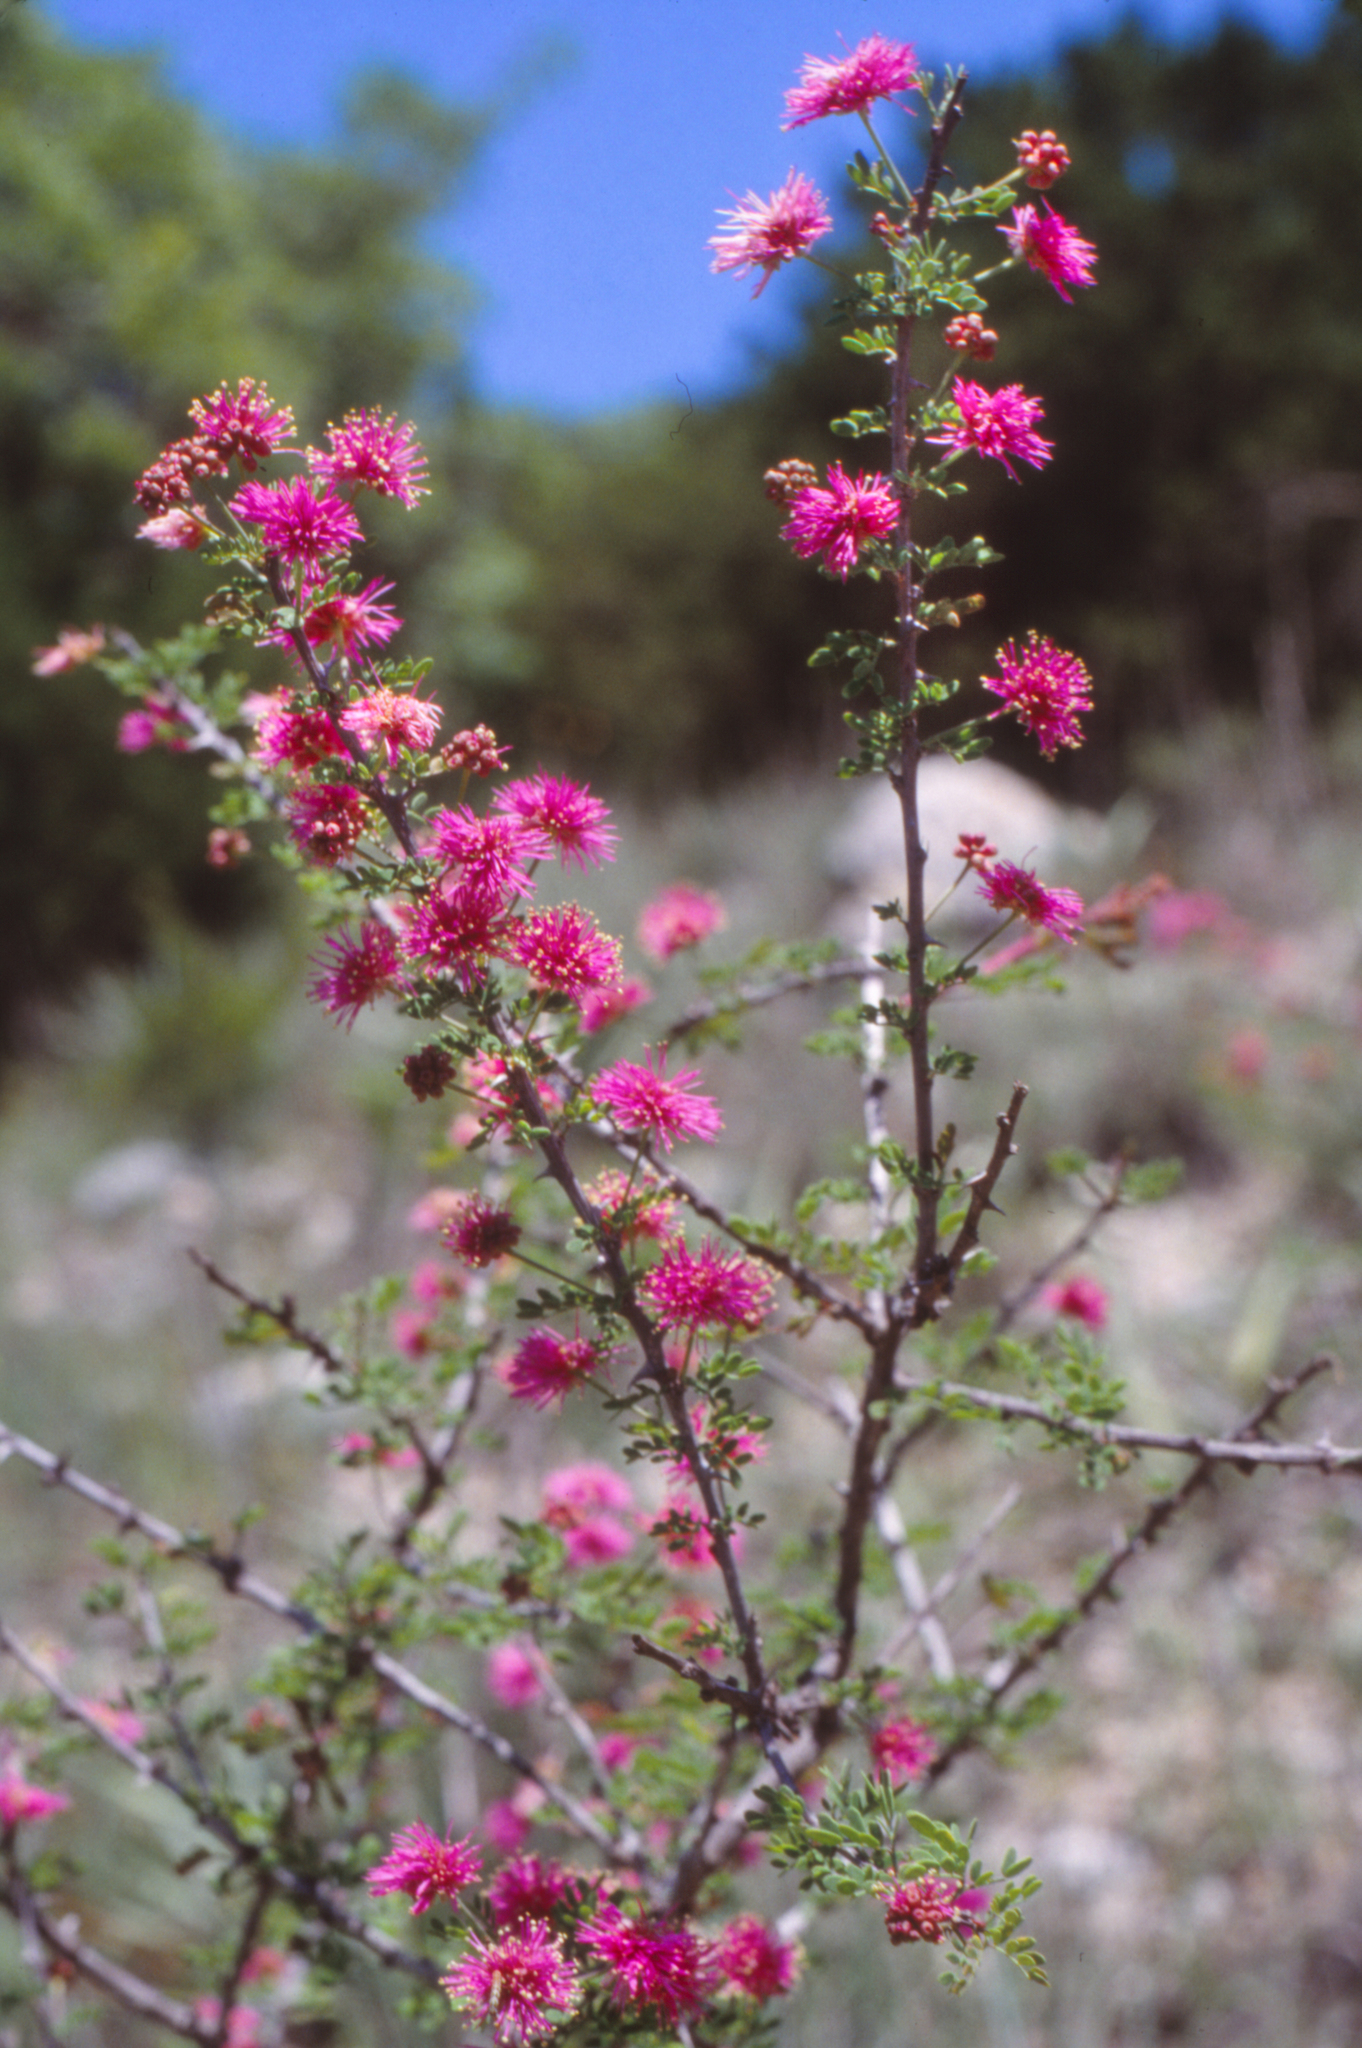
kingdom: Plantae
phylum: Tracheophyta
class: Magnoliopsida
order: Fabales
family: Fabaceae
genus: Mimosa
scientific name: Mimosa borealis
